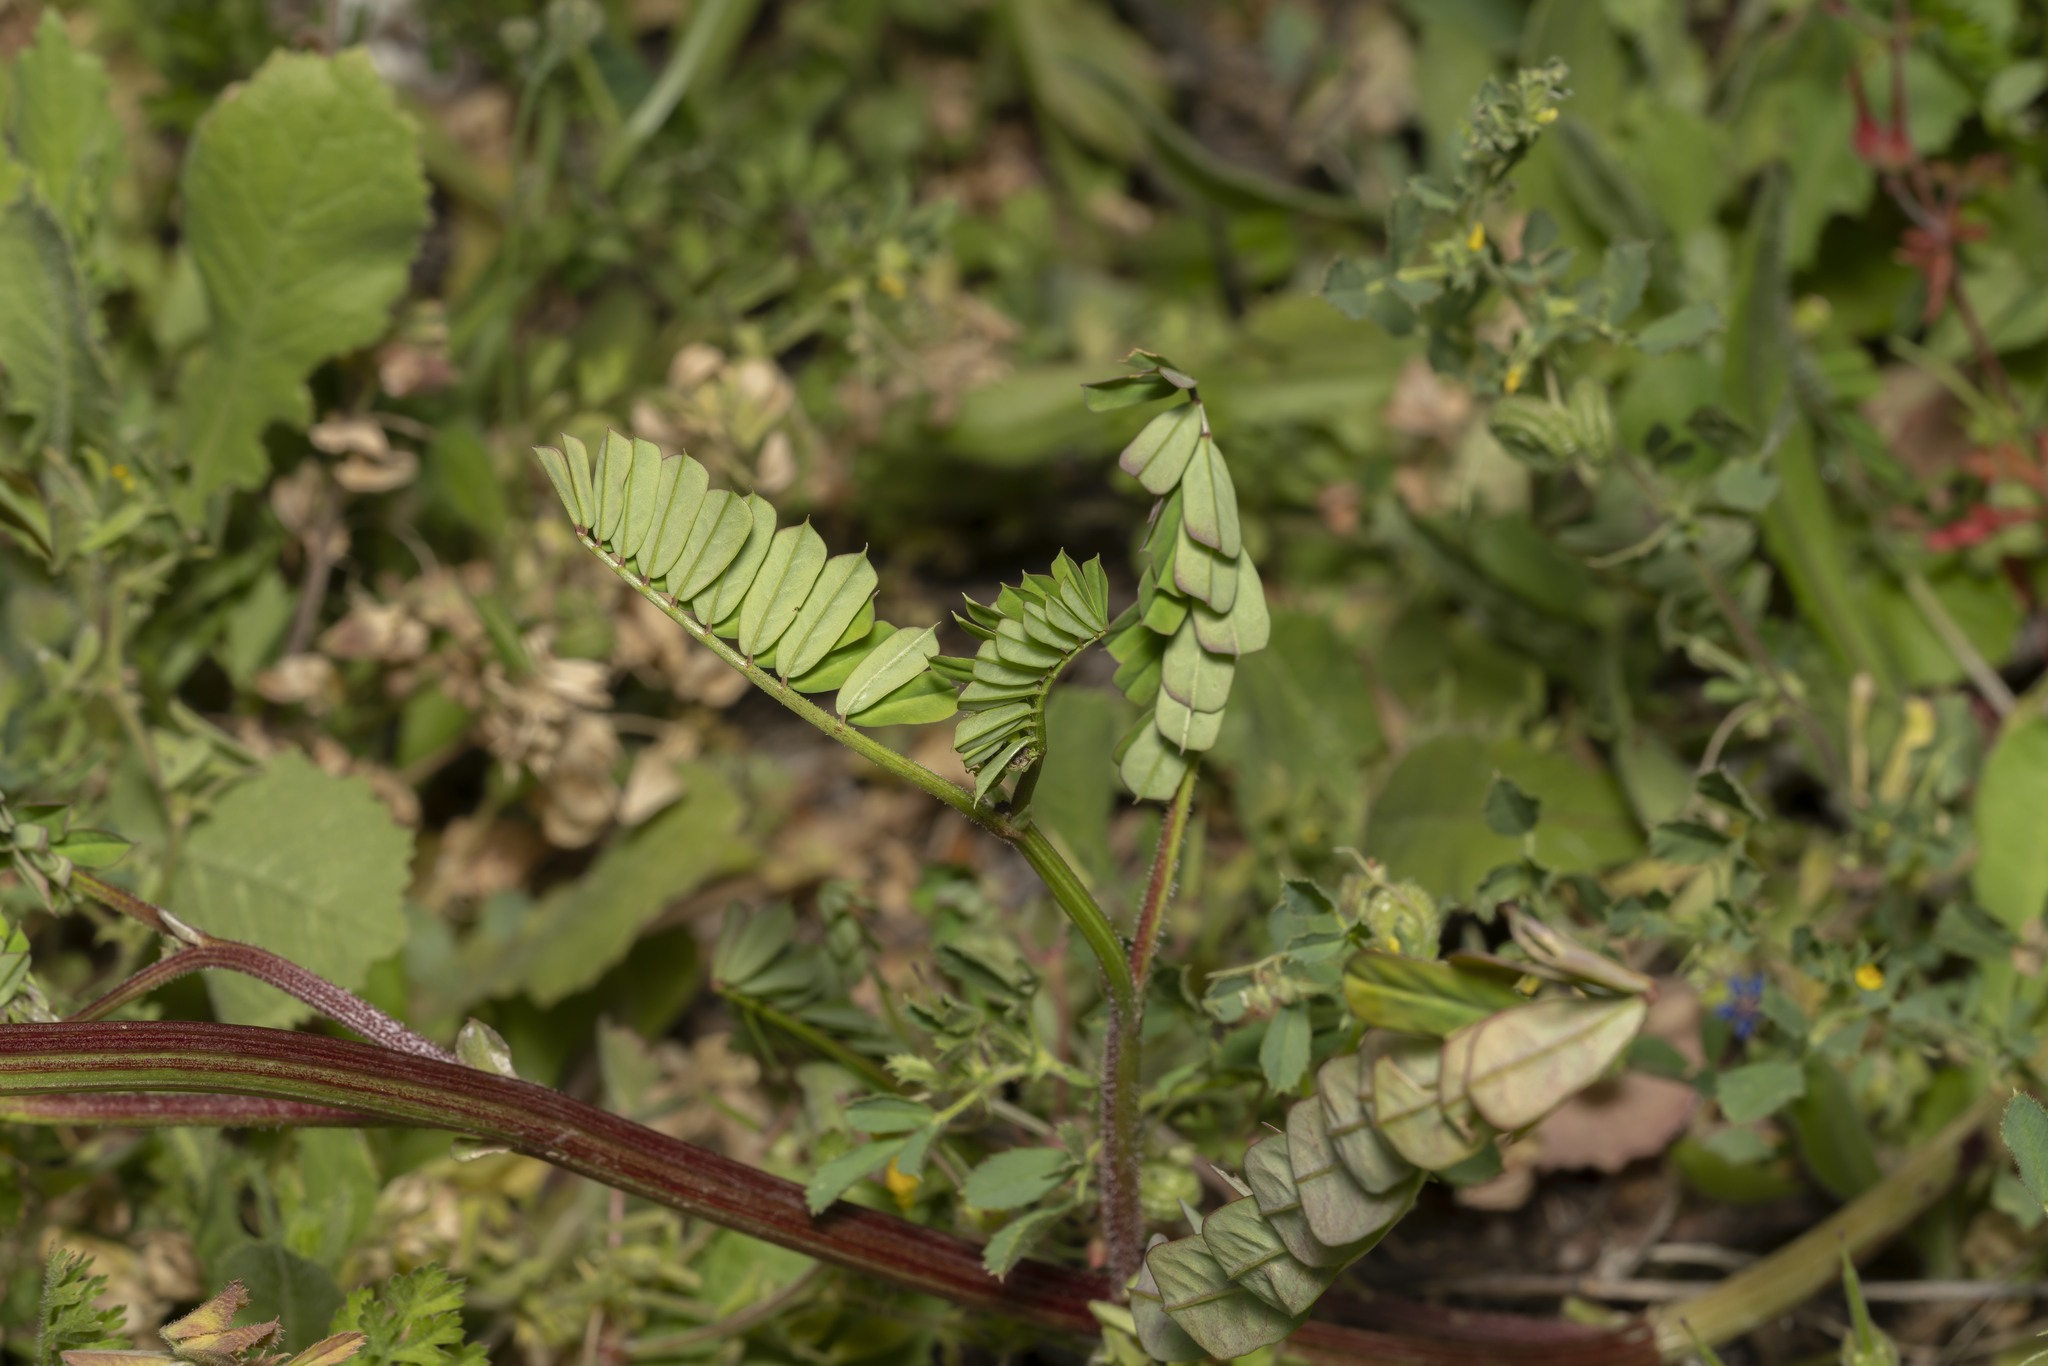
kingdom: Plantae
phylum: Tracheophyta
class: Magnoliopsida
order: Fabales
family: Fabaceae
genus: Coronilla
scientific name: Coronilla securidaca
